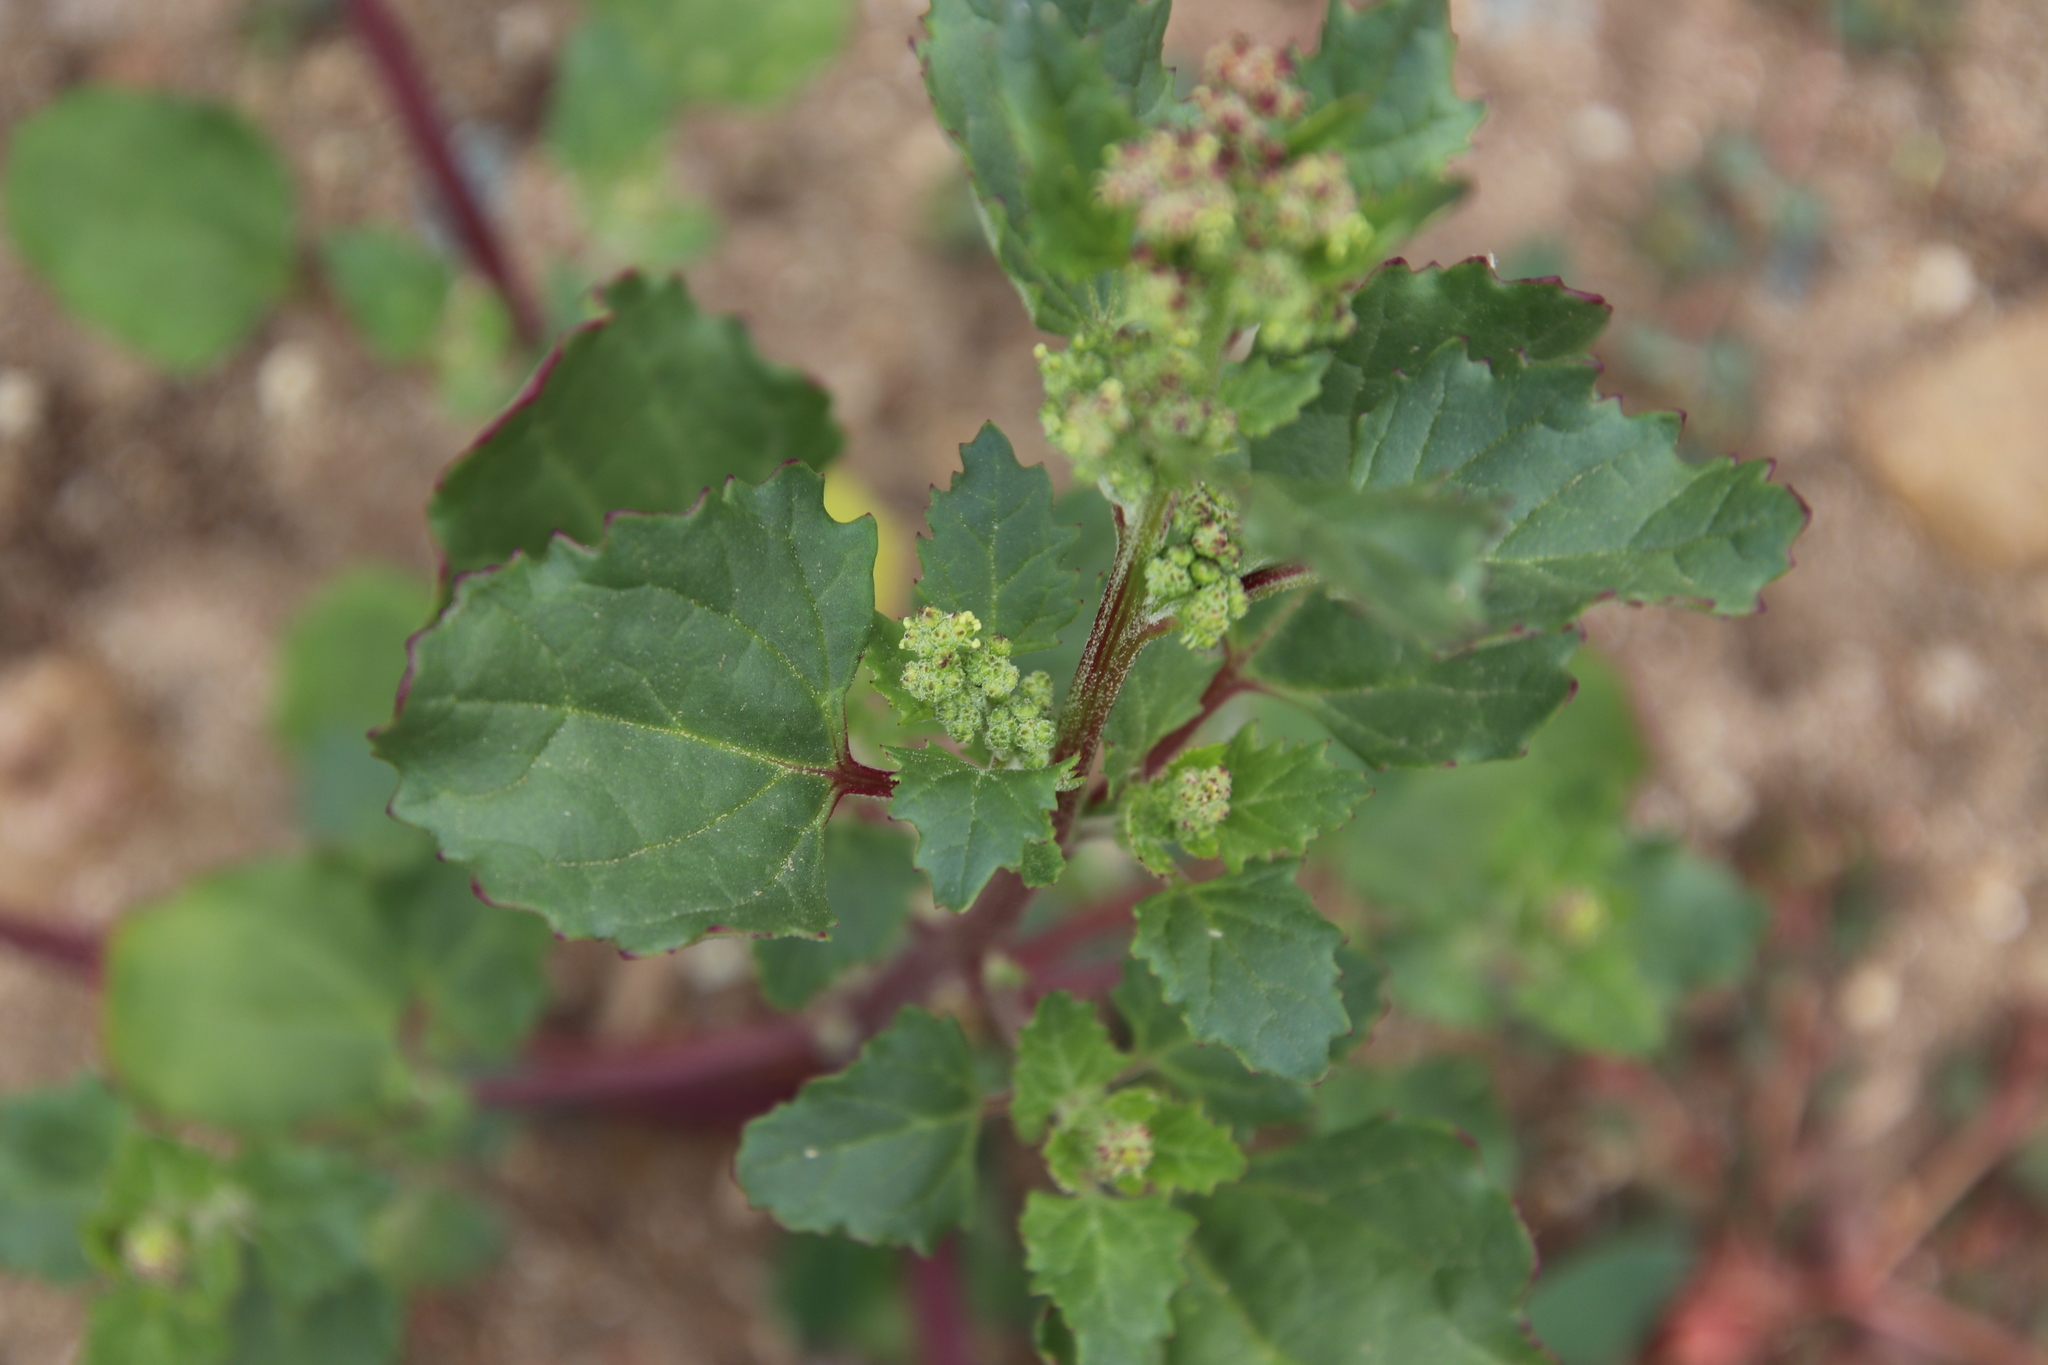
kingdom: Plantae
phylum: Tracheophyta
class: Magnoliopsida
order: Caryophyllales
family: Amaranthaceae
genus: Chenopodiastrum
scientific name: Chenopodiastrum murale
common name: Sowbane
